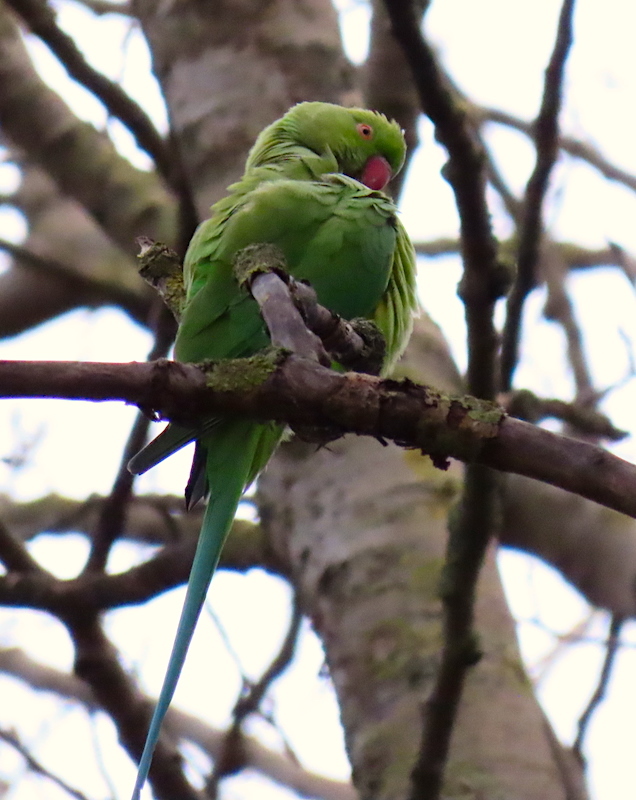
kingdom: Animalia
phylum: Chordata
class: Aves
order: Psittaciformes
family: Psittacidae
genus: Psittacula
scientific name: Psittacula krameri
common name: Rose-ringed parakeet
